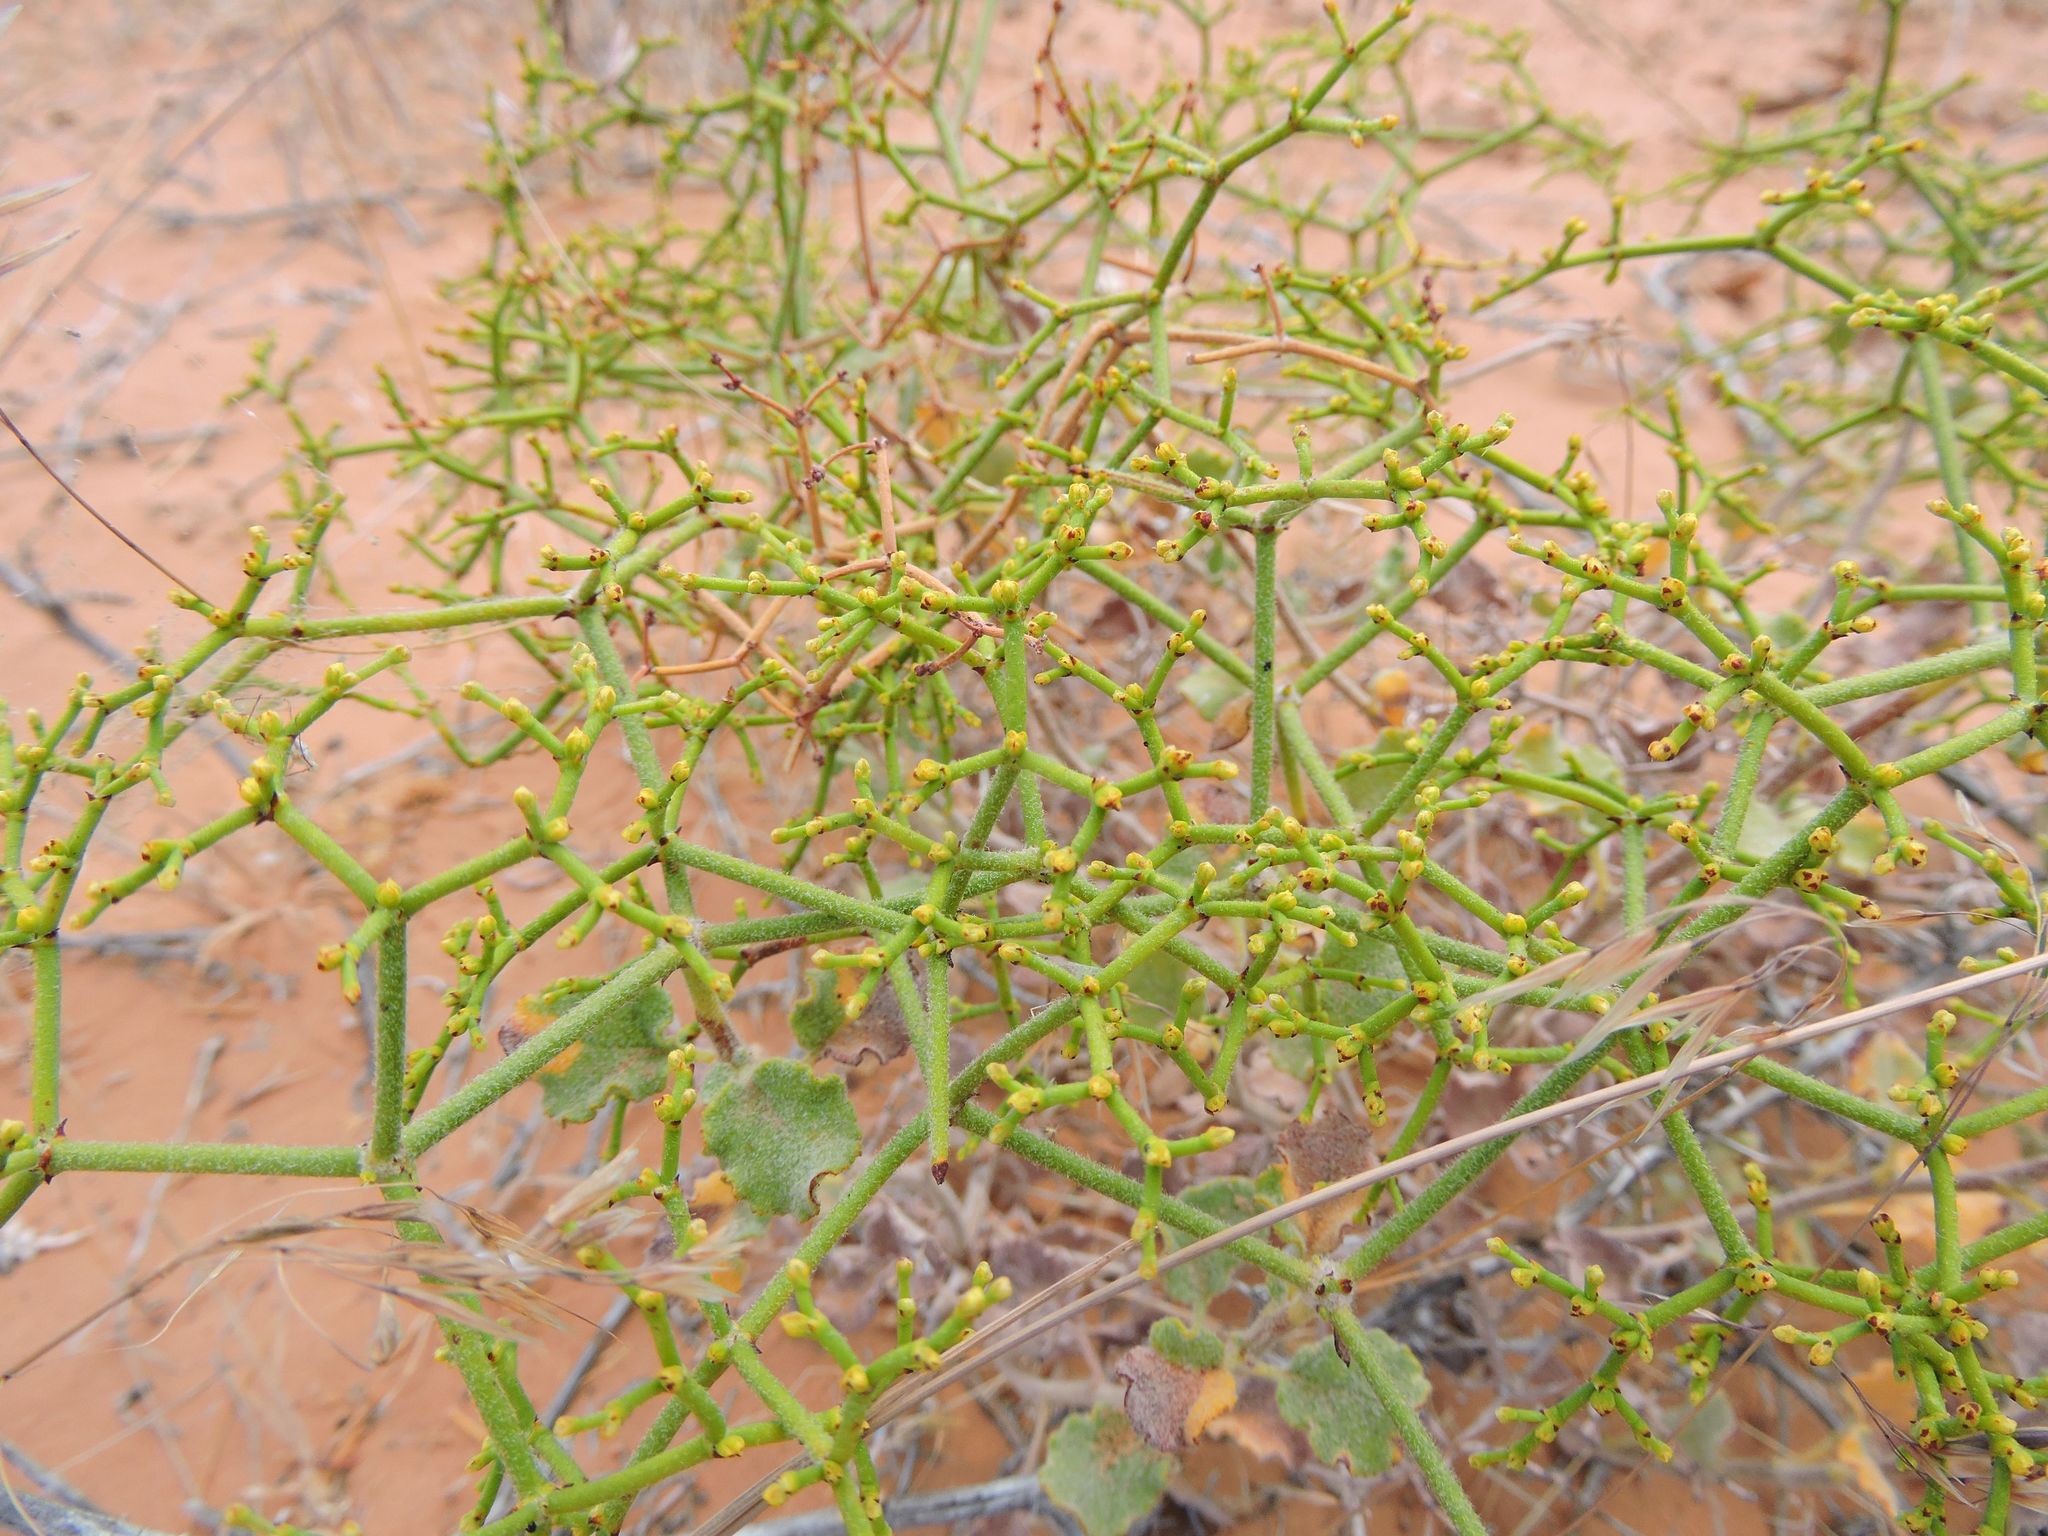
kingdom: Plantae
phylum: Tracheophyta
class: Magnoliopsida
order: Caryophyllales
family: Polygonaceae
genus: Eriogonum
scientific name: Eriogonum heermannii
